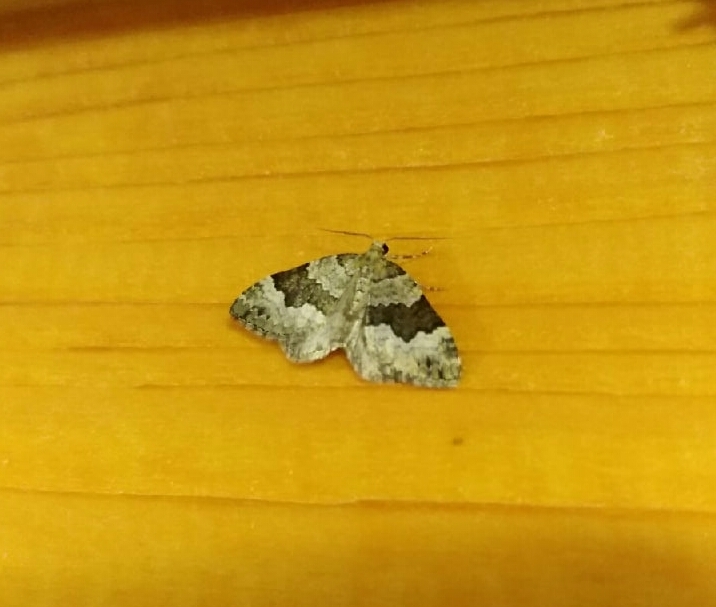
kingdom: Animalia
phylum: Arthropoda
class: Insecta
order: Lepidoptera
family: Geometridae
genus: Colostygia
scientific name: Colostygia aptata
